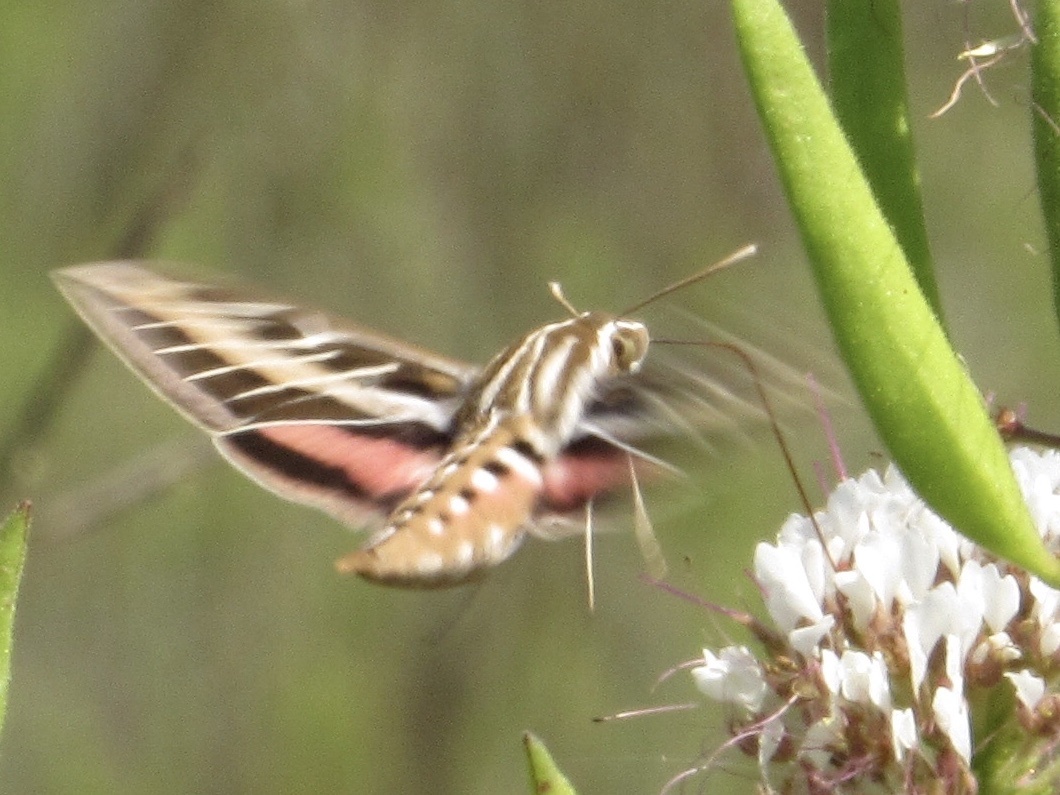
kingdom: Animalia
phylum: Arthropoda
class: Insecta
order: Lepidoptera
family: Sphingidae
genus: Hyles
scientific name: Hyles lineata
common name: White-lined sphinx
